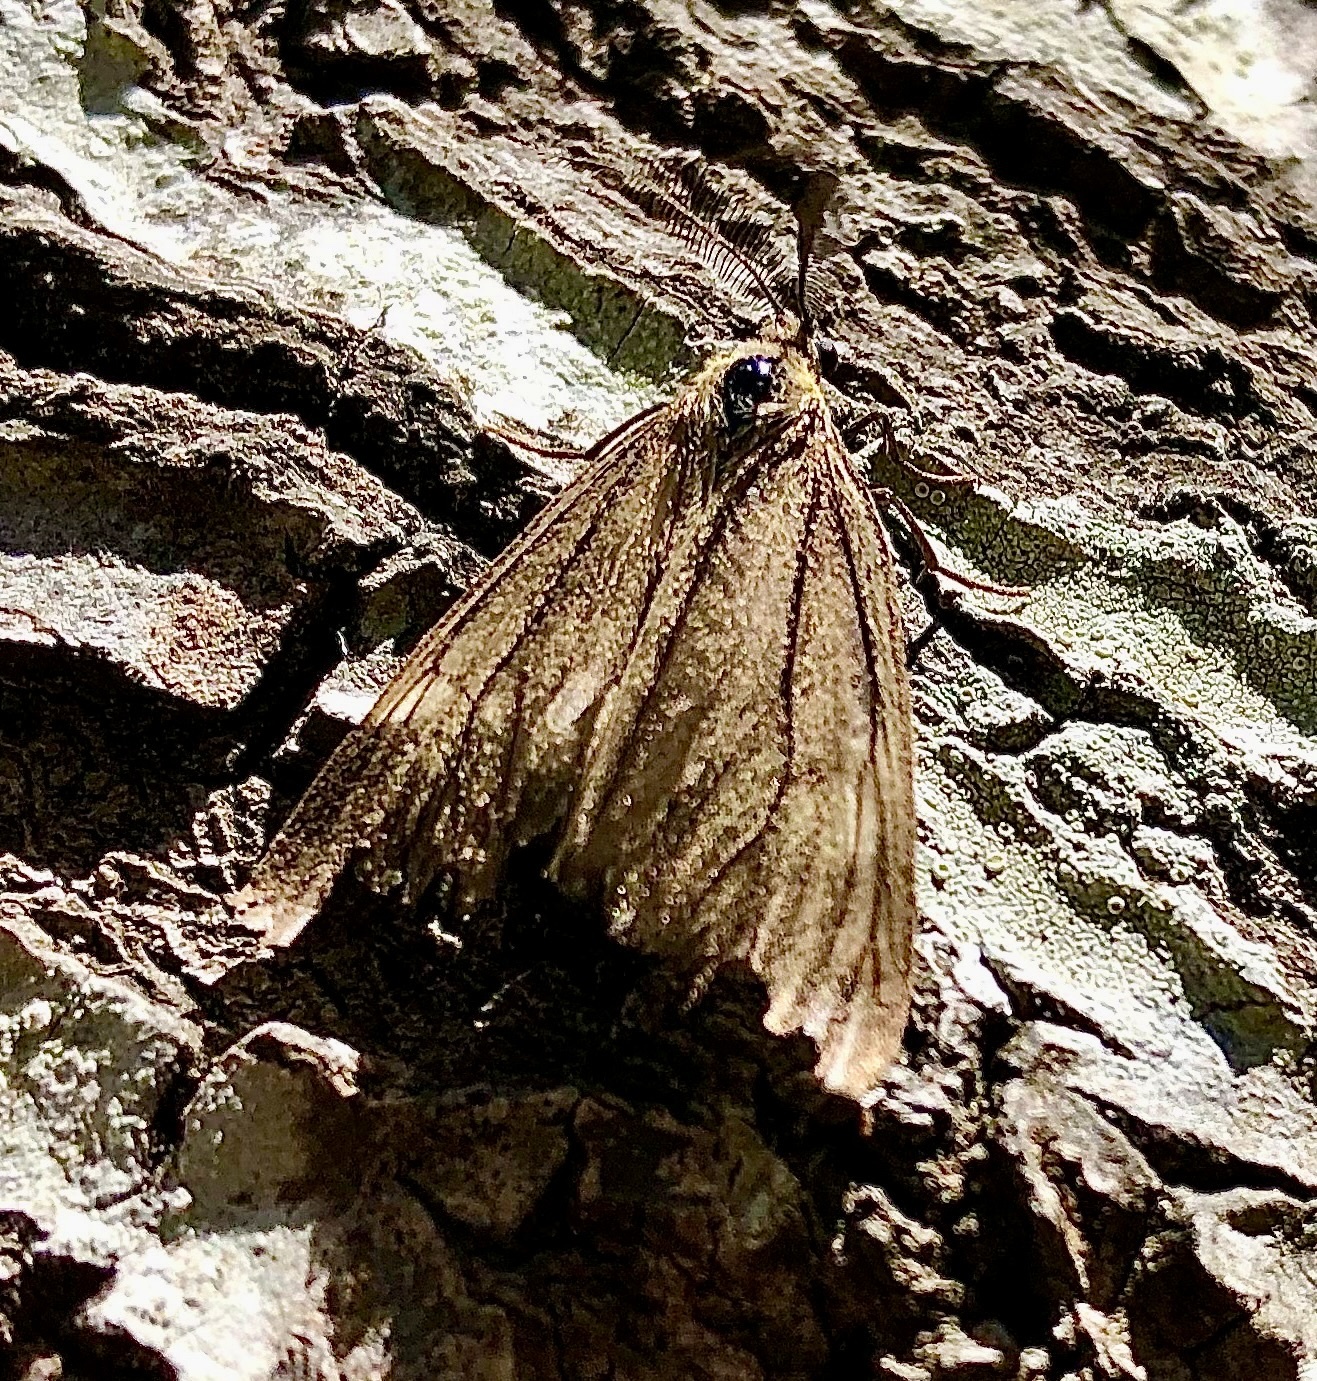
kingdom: Animalia
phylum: Arthropoda
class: Insecta
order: Lepidoptera
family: Notodontidae
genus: Phryganidia
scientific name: Phryganidia californica
